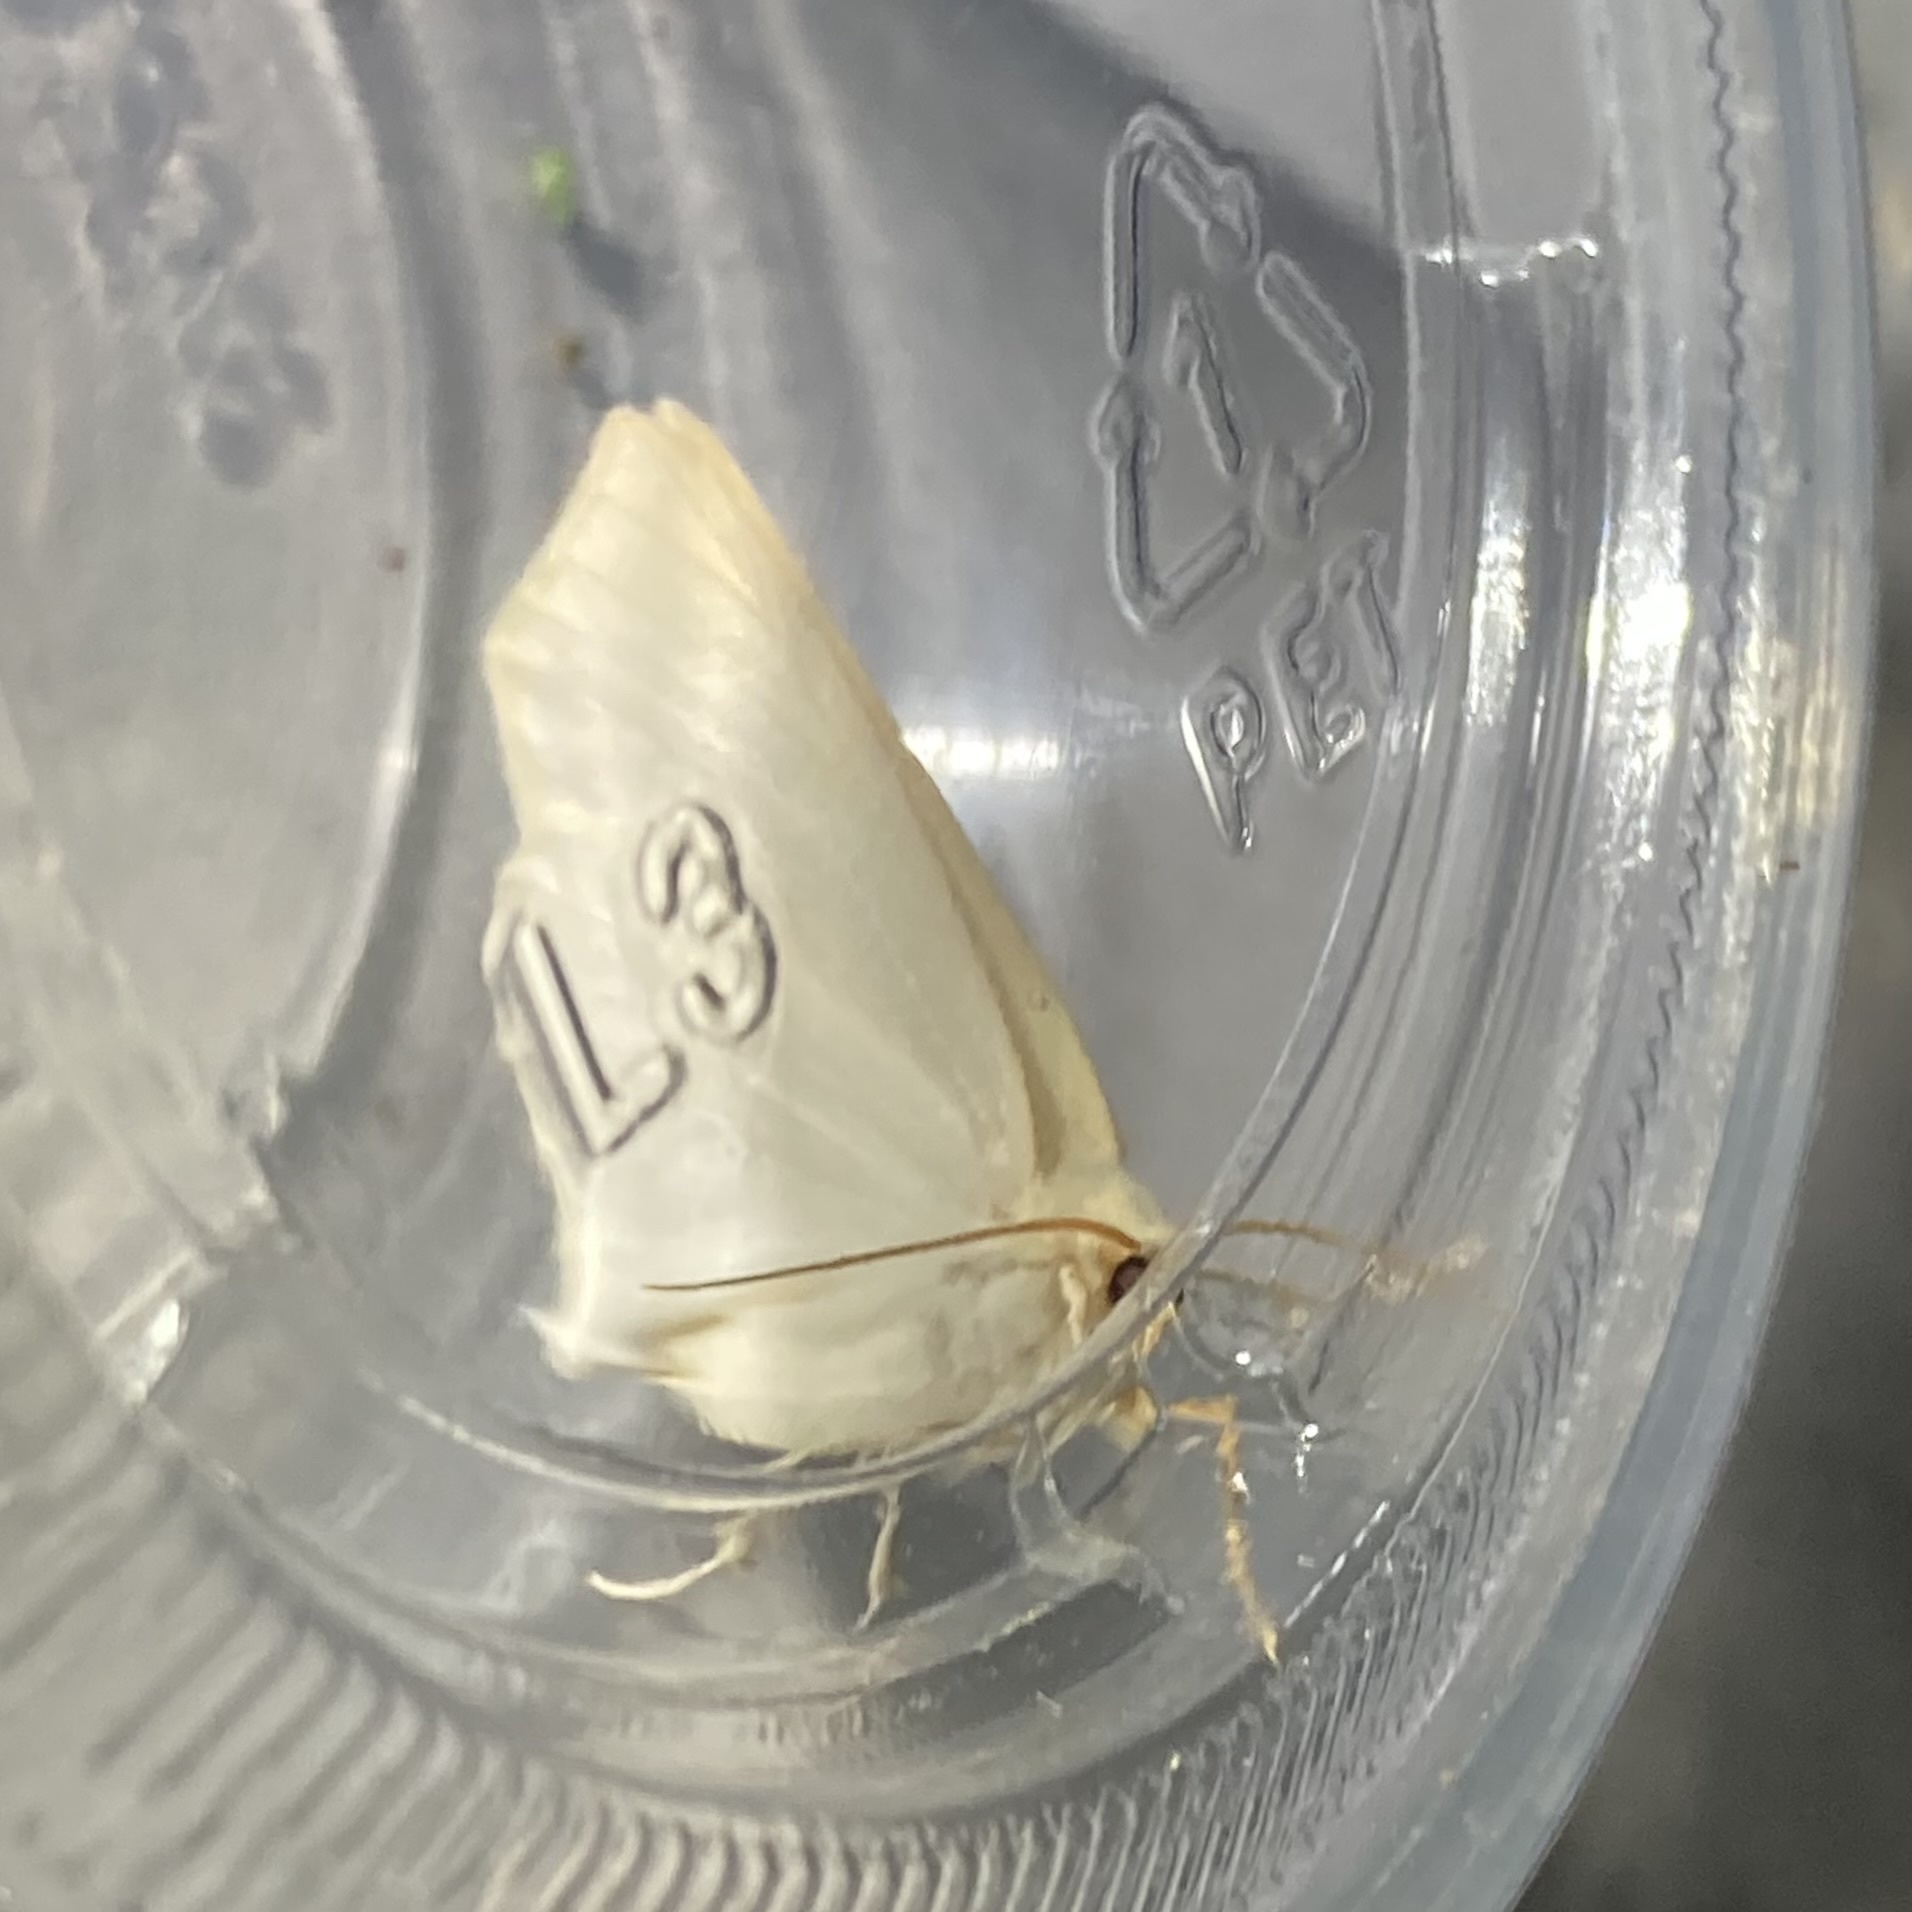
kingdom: Animalia
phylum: Arthropoda
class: Insecta
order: Lepidoptera
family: Geometridae
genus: Tetracis
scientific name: Tetracis cachexiata
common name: White slant-line
